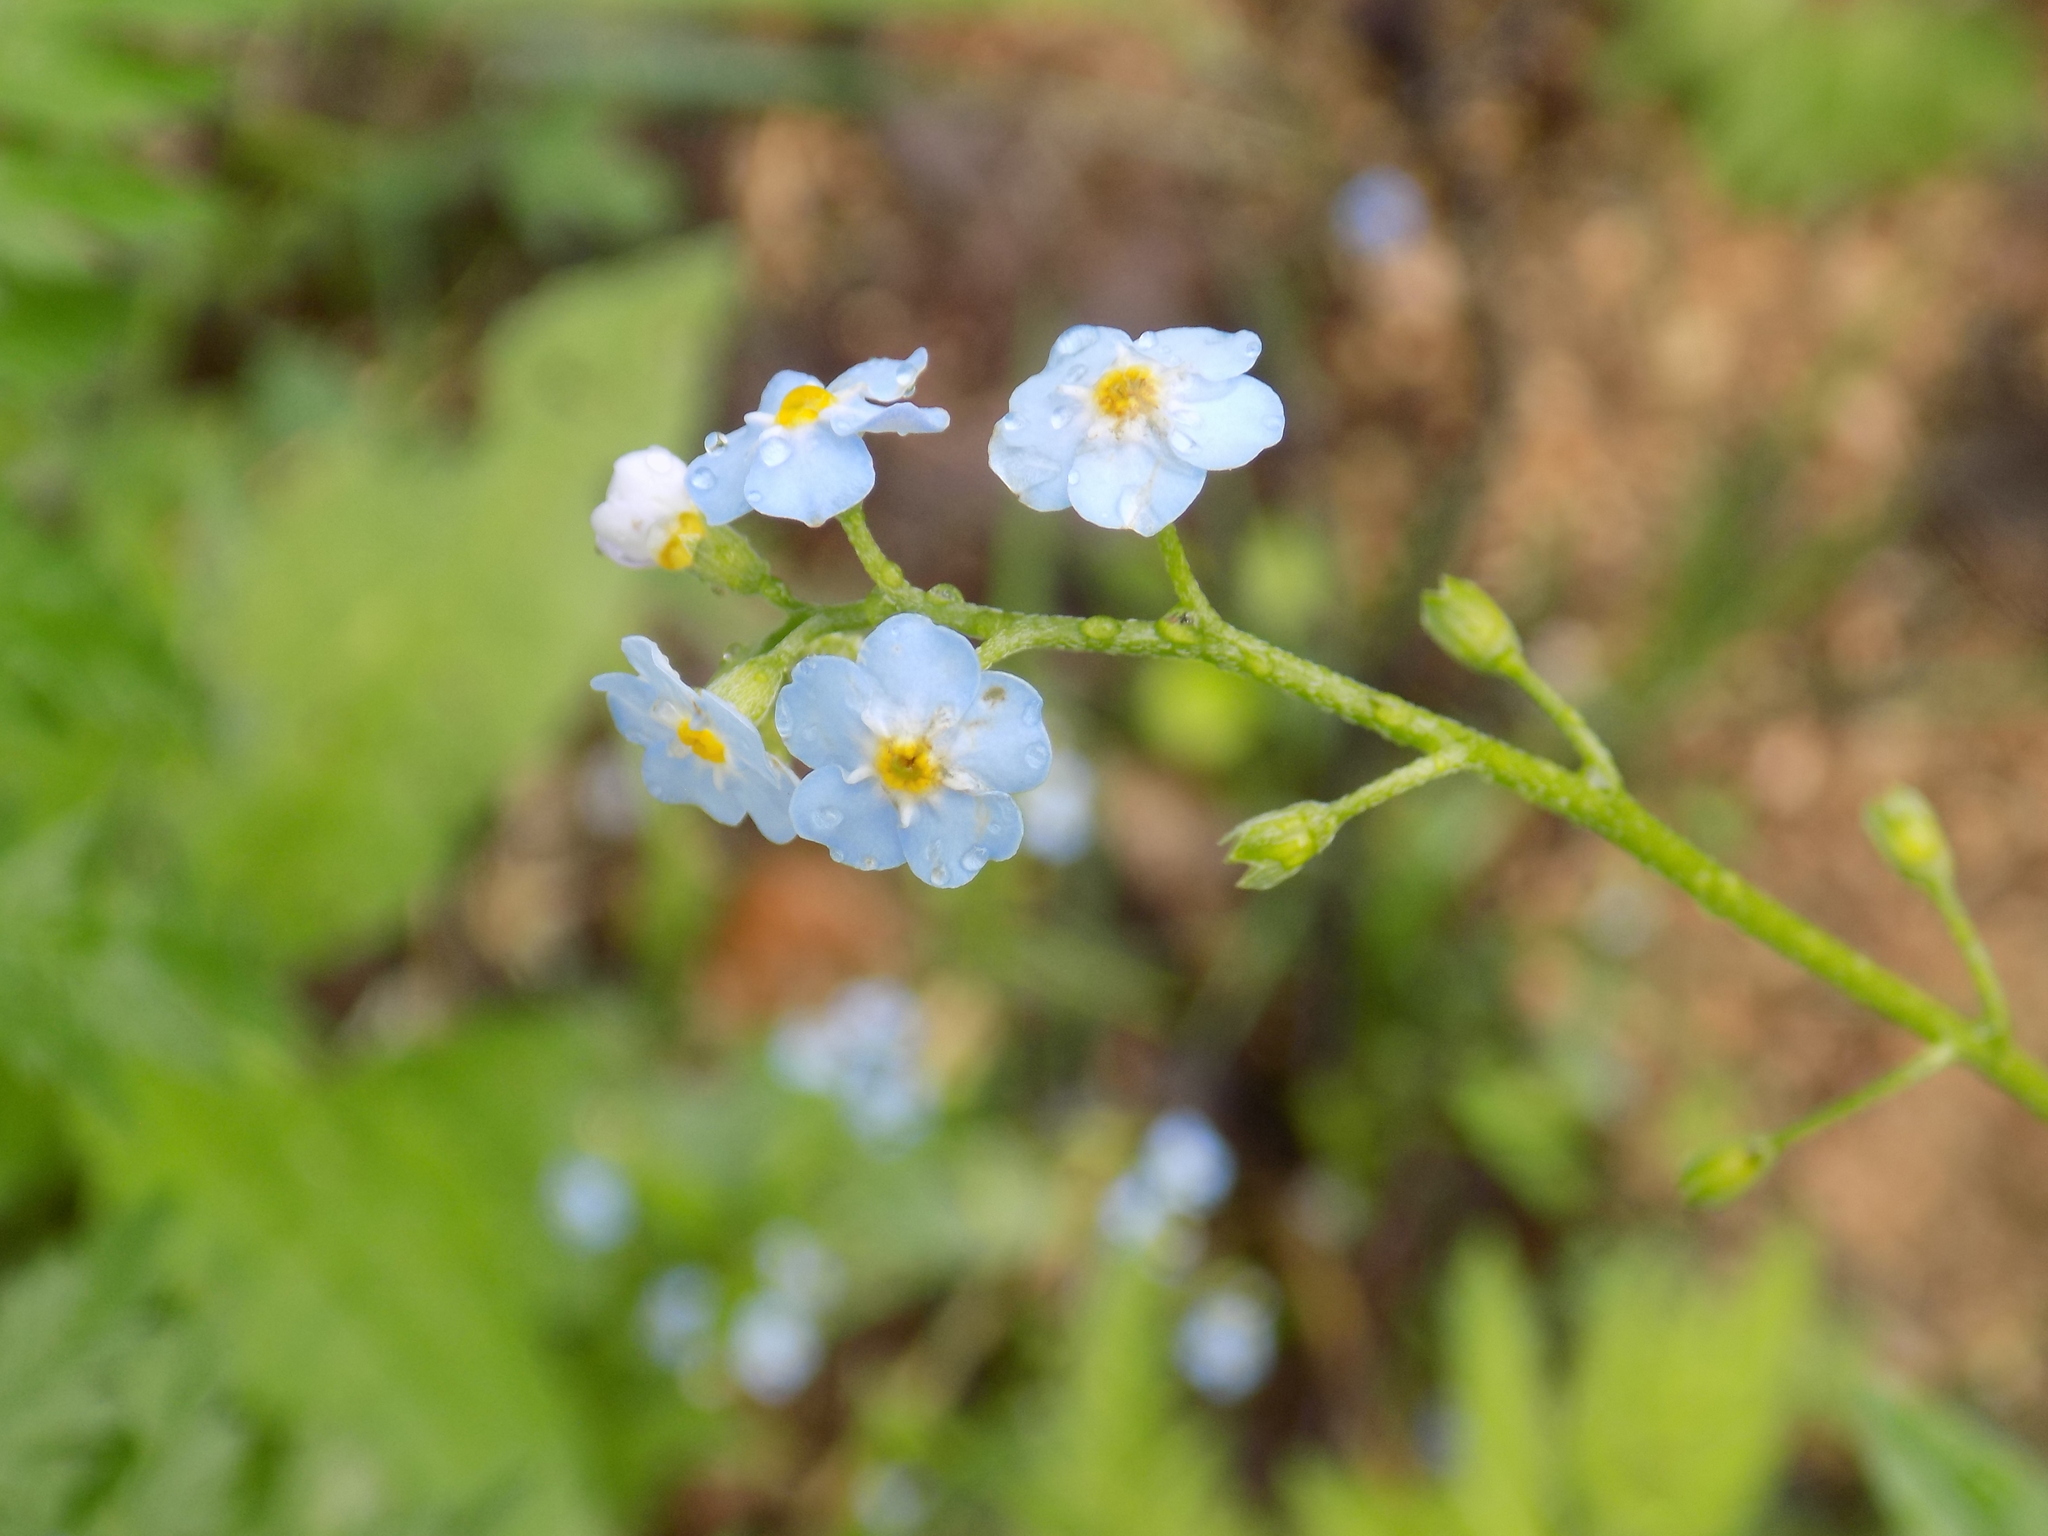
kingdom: Plantae
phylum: Tracheophyta
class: Magnoliopsida
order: Boraginales
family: Boraginaceae
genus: Myosotis
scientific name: Myosotis scorpioides
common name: Water forget-me-not
